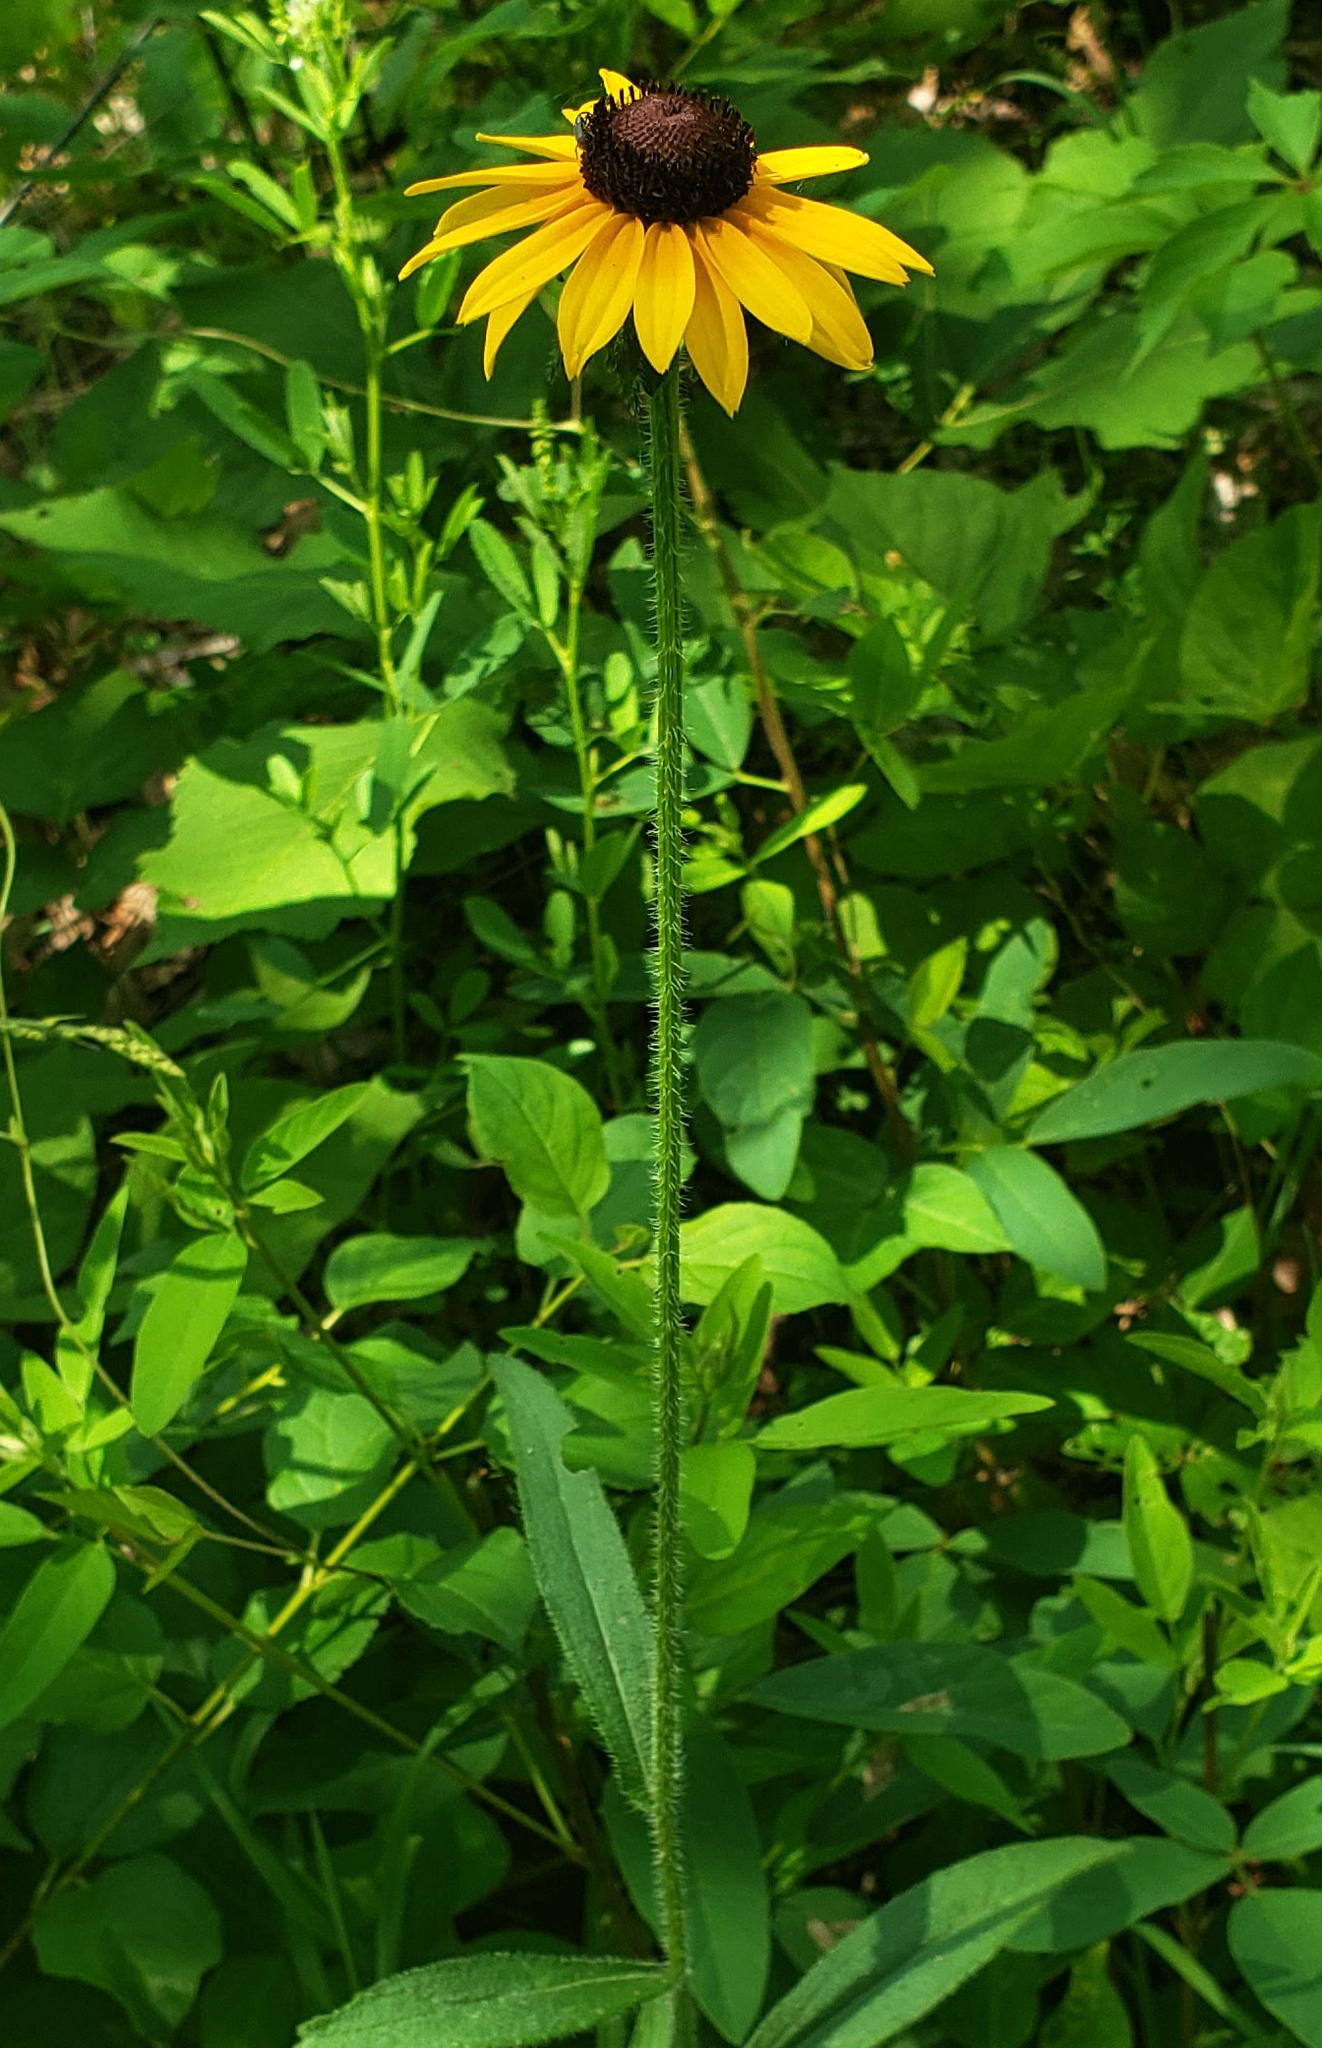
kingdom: Plantae
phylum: Tracheophyta
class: Magnoliopsida
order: Asterales
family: Asteraceae
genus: Rudbeckia
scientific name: Rudbeckia hirta
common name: Black-eyed-susan
